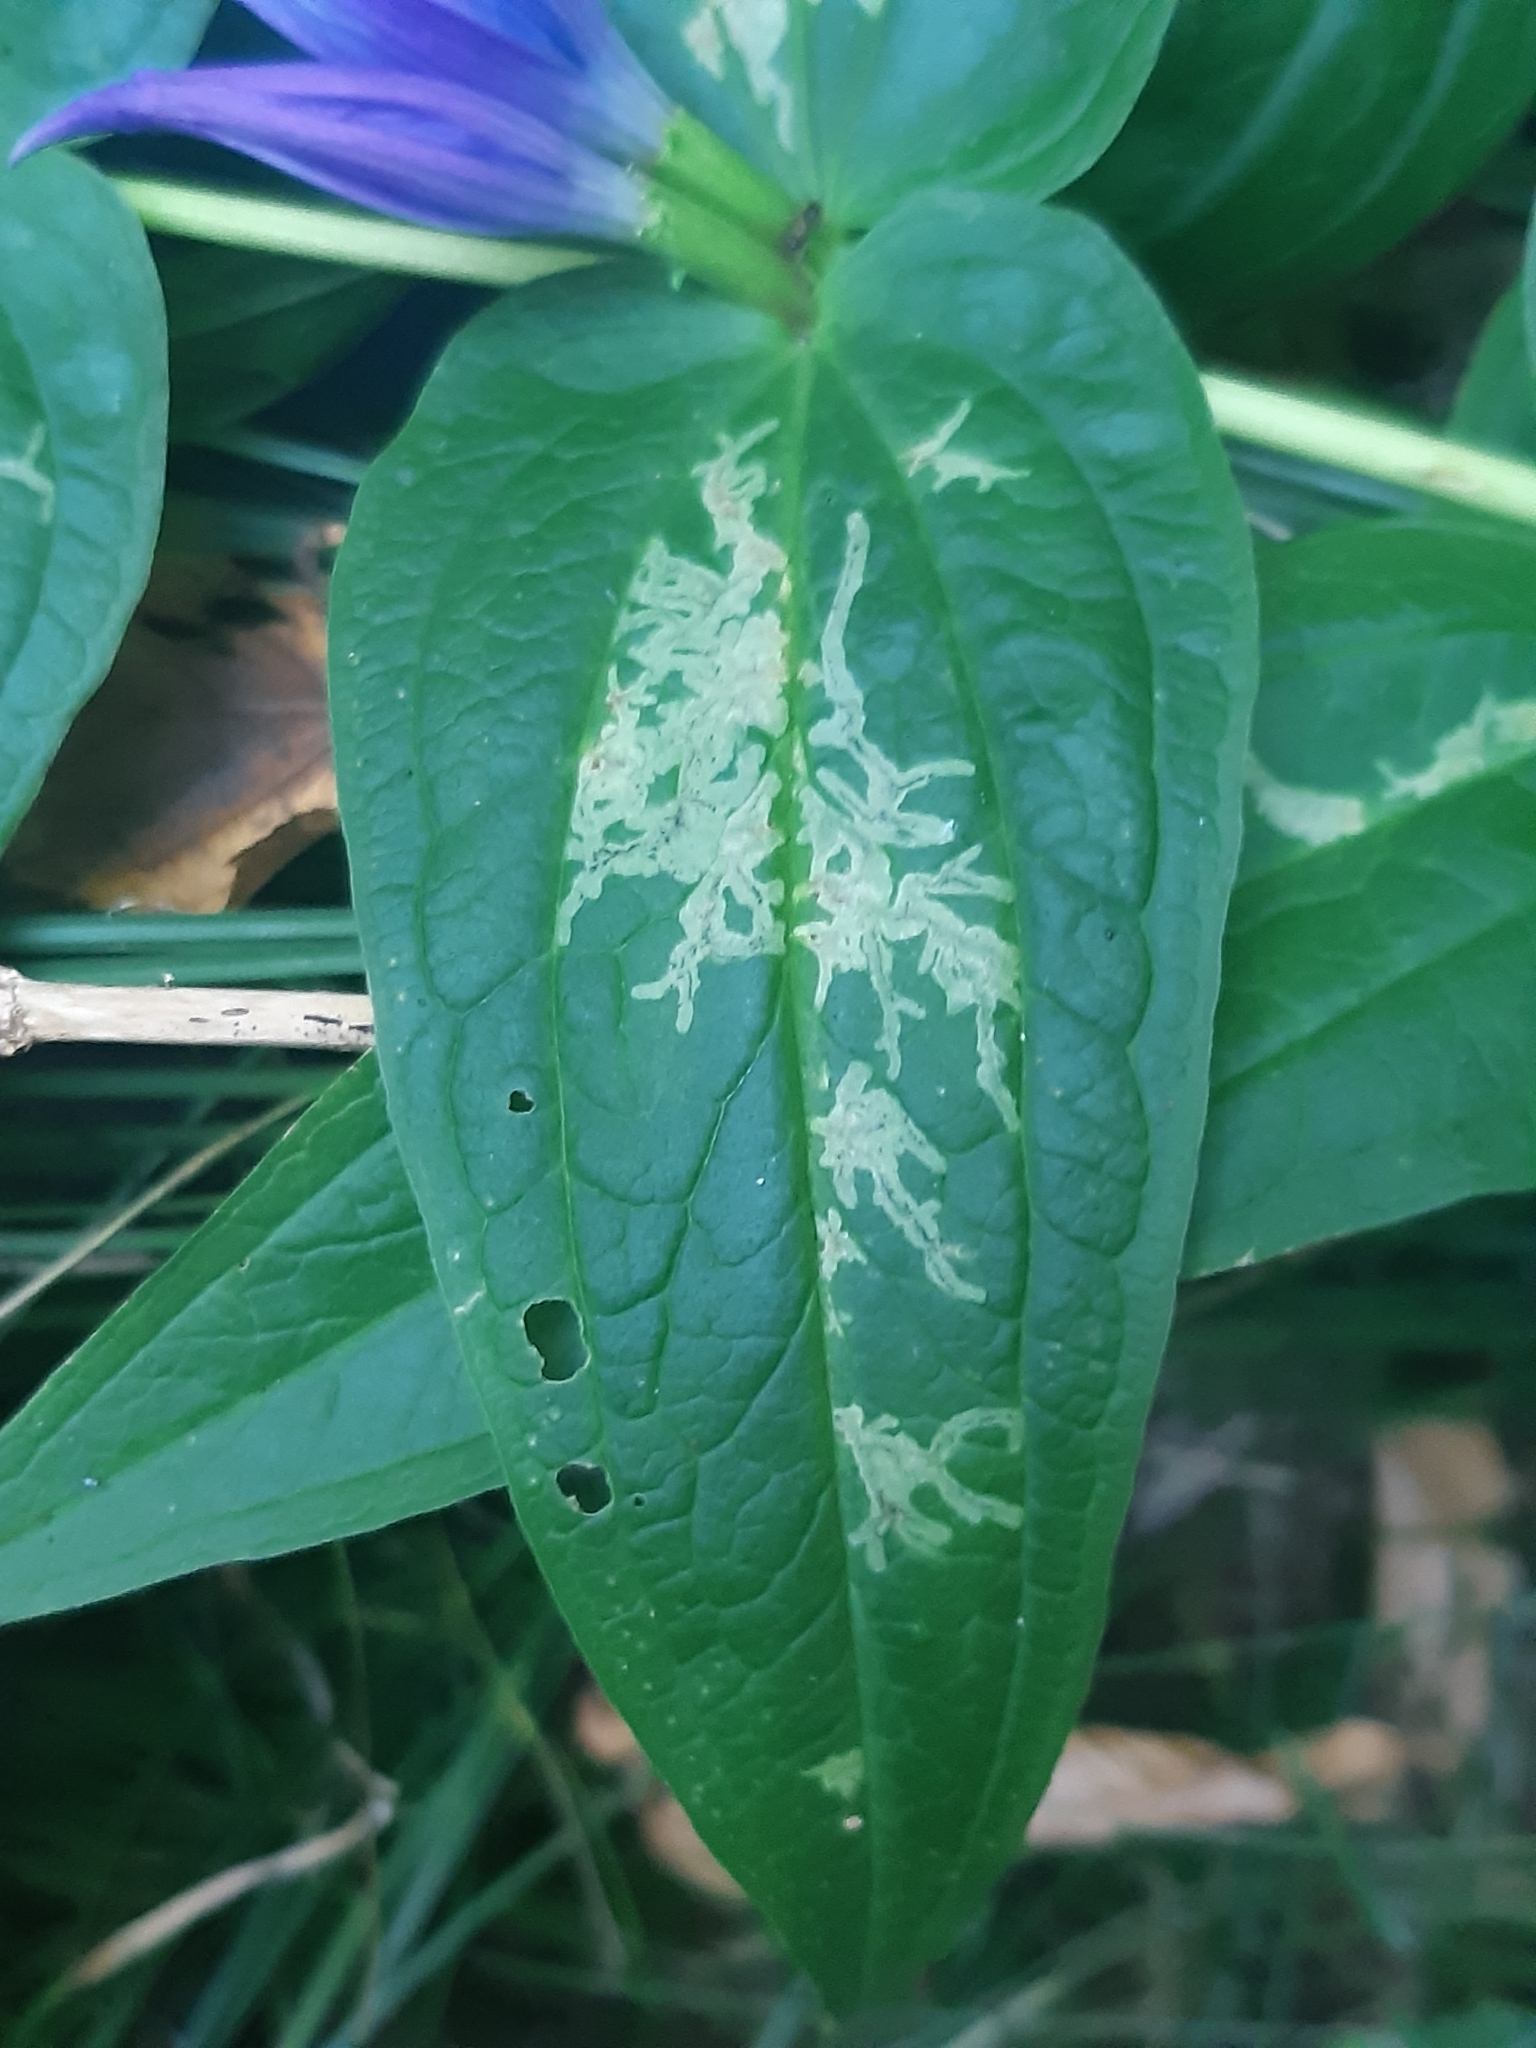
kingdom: Animalia
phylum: Arthropoda
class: Insecta
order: Diptera
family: Agromyzidae
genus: Phytomyza
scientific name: Phytomyza gentianae
